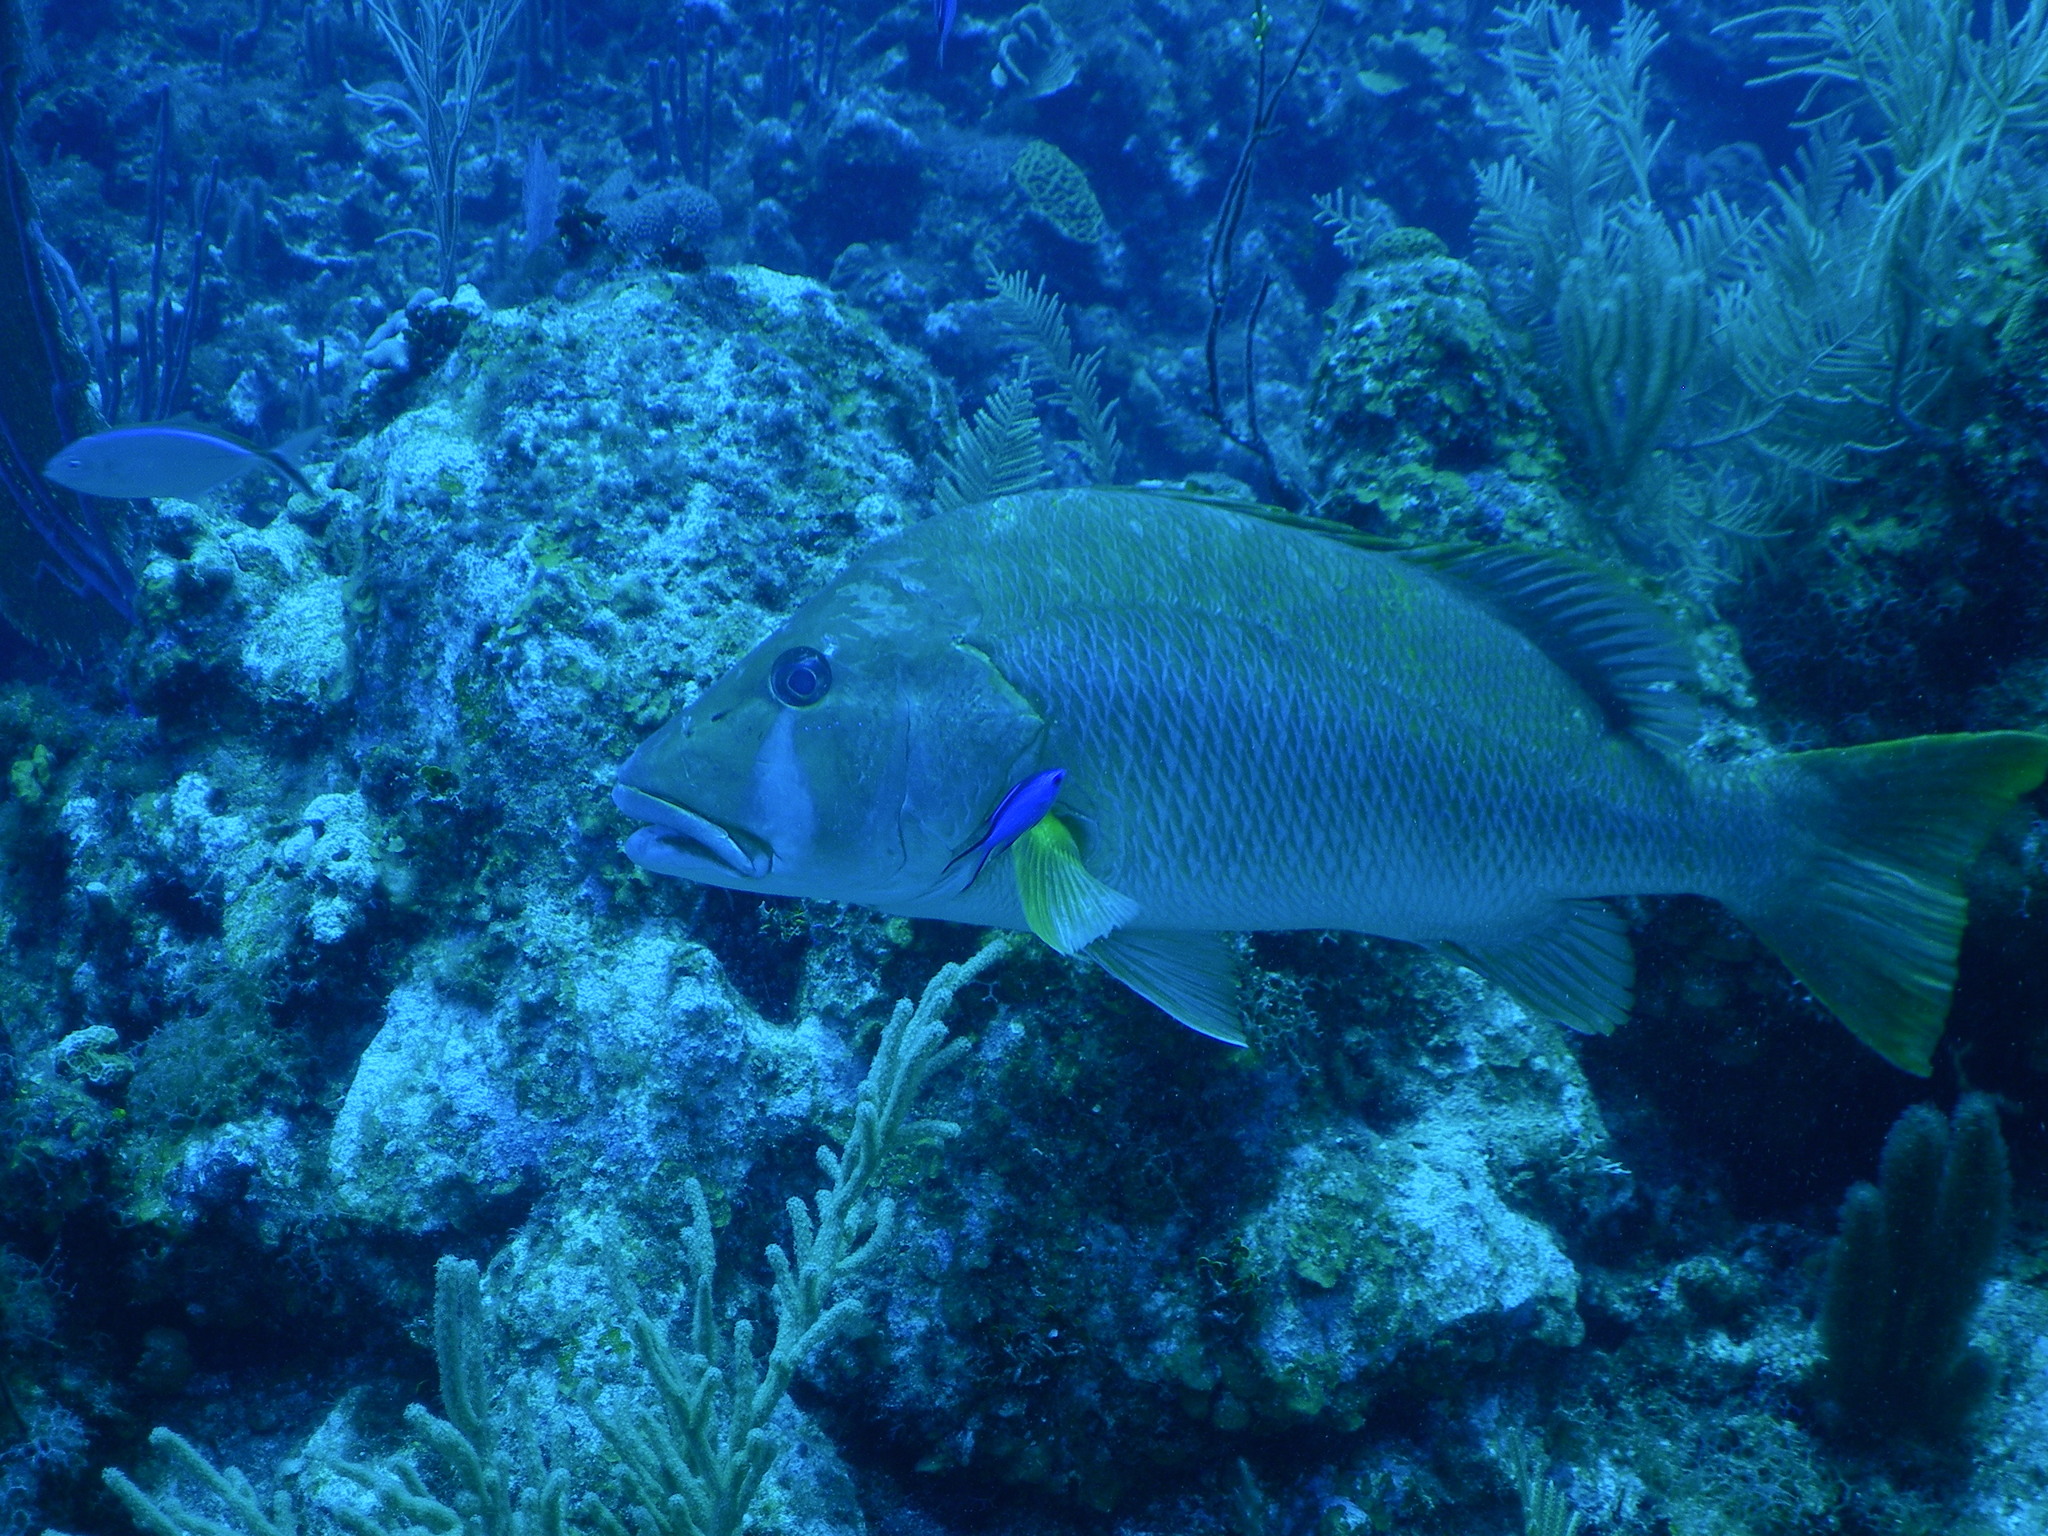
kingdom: Animalia
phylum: Chordata
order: Perciformes
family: Lutjanidae
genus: Lutjanus
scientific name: Lutjanus jocu
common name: Dog snapper
